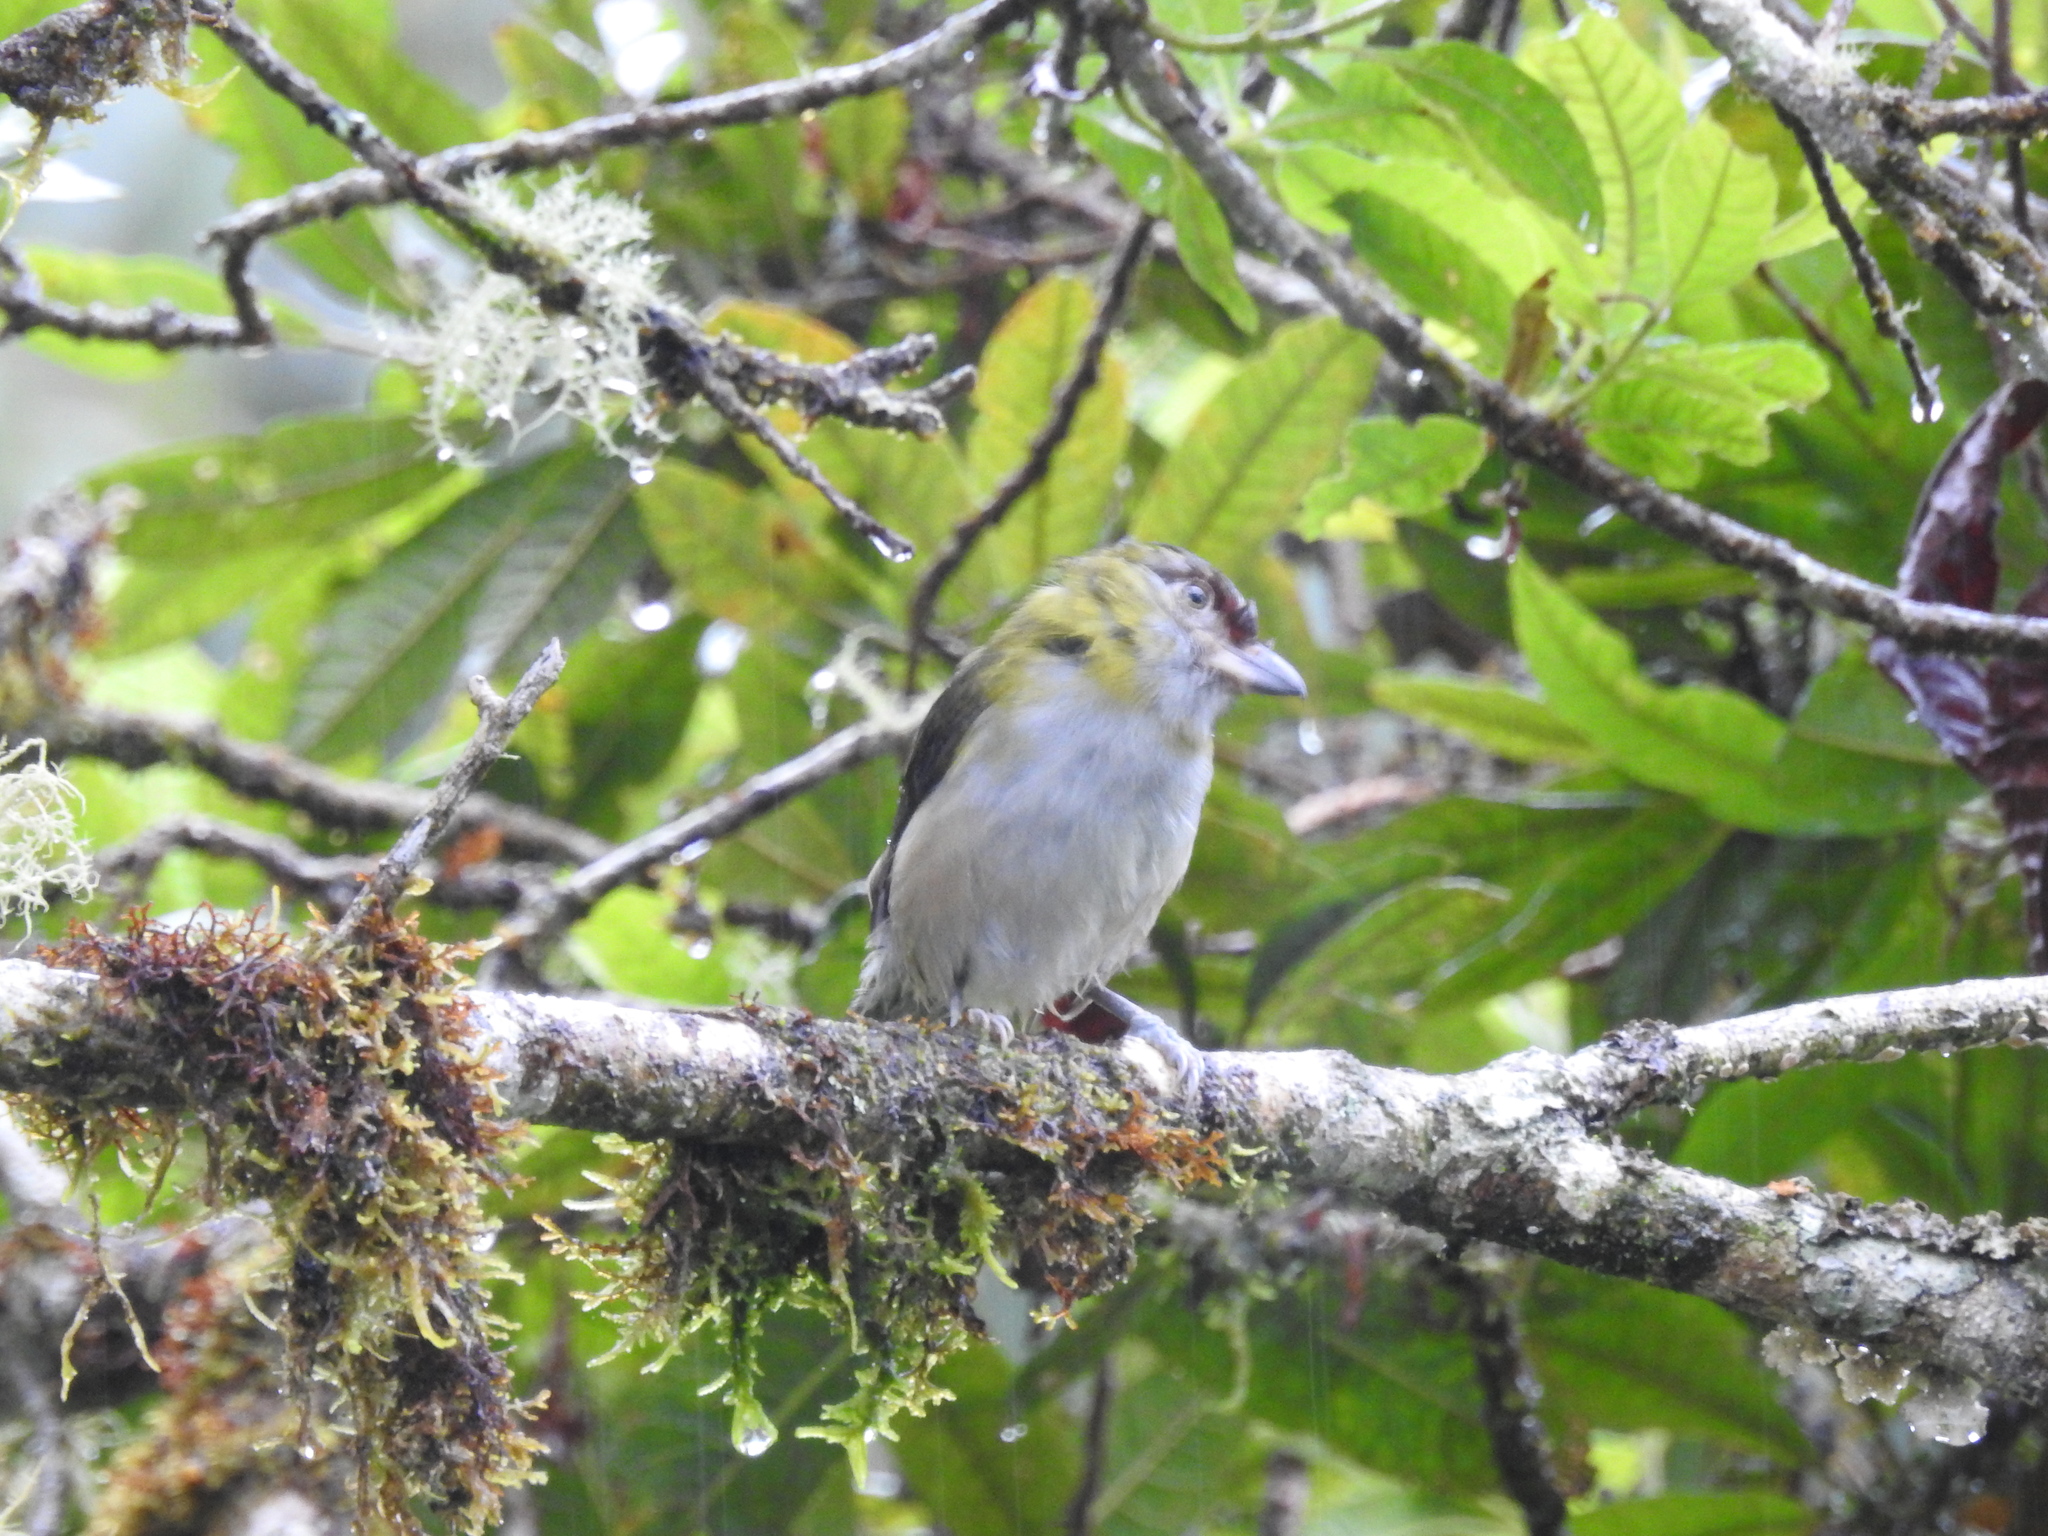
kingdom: Animalia
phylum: Chordata
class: Aves
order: Passeriformes
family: Vireonidae
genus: Cyclarhis
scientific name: Cyclarhis nigrirostris
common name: Black-billed peppershrike
